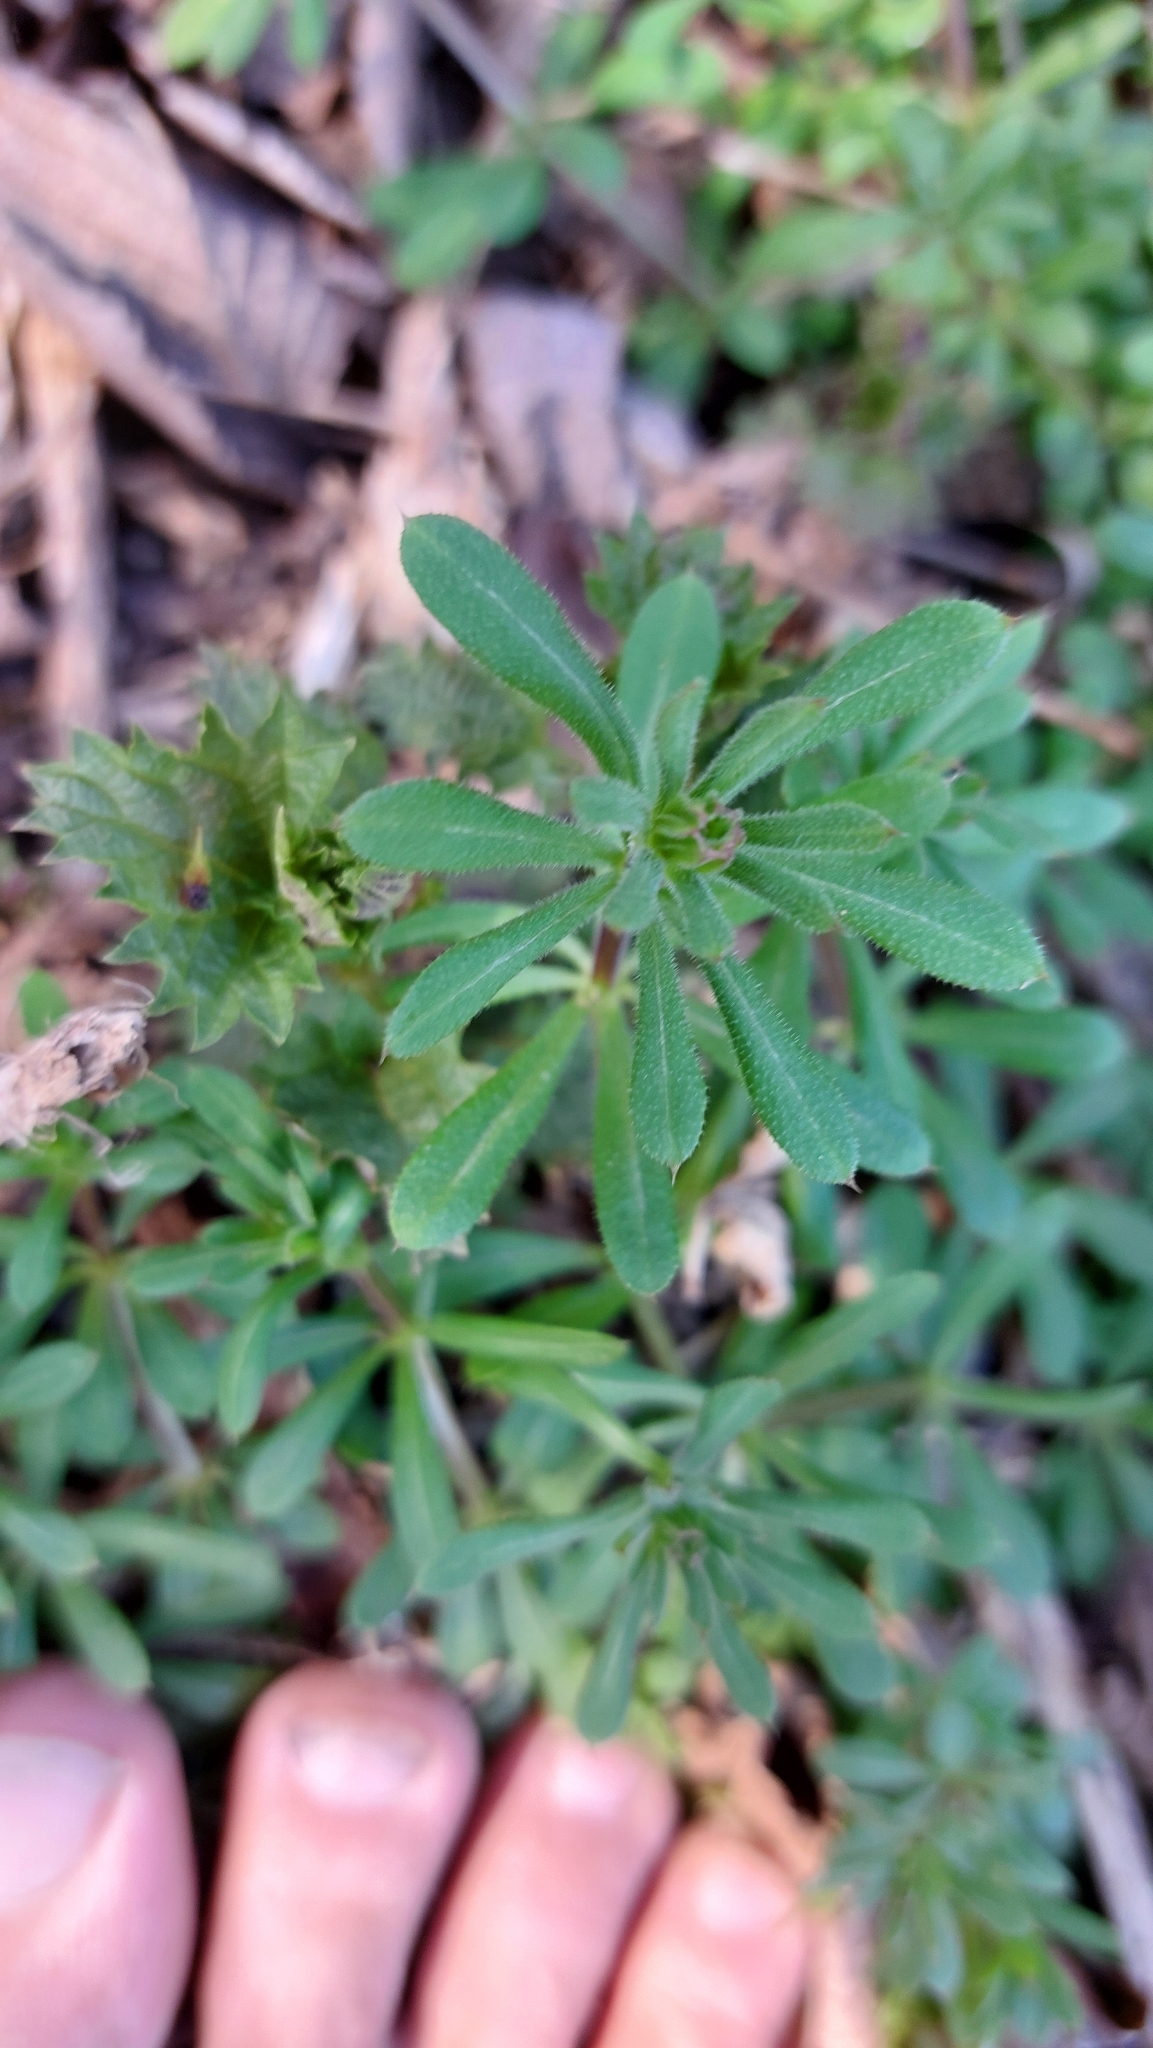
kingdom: Plantae
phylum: Tracheophyta
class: Magnoliopsida
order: Gentianales
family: Rubiaceae
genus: Galium
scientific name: Galium aparine
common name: Cleavers
